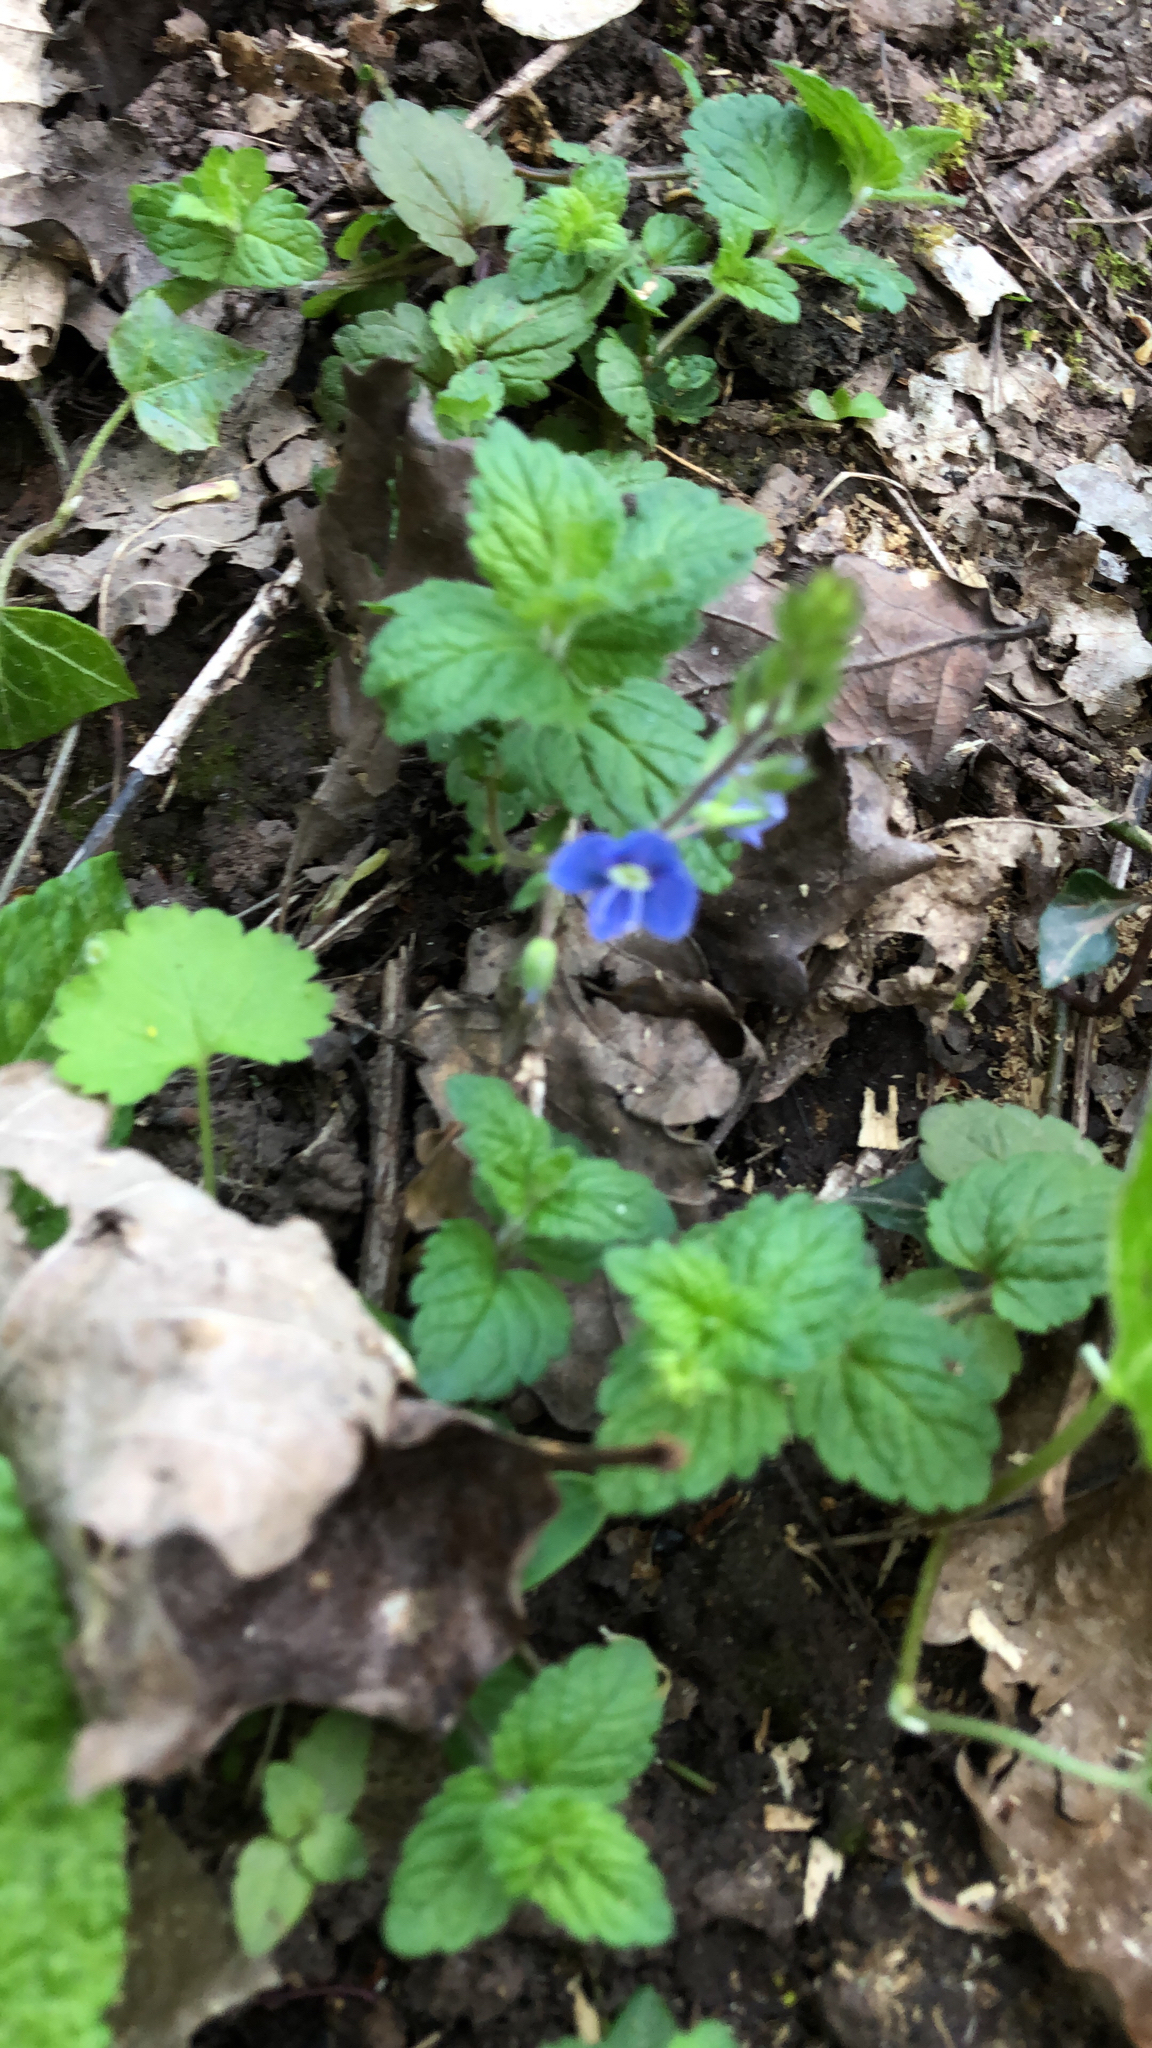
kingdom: Plantae
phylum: Tracheophyta
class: Magnoliopsida
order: Lamiales
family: Plantaginaceae
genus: Veronica
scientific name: Veronica chamaedrys
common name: Germander speedwell
